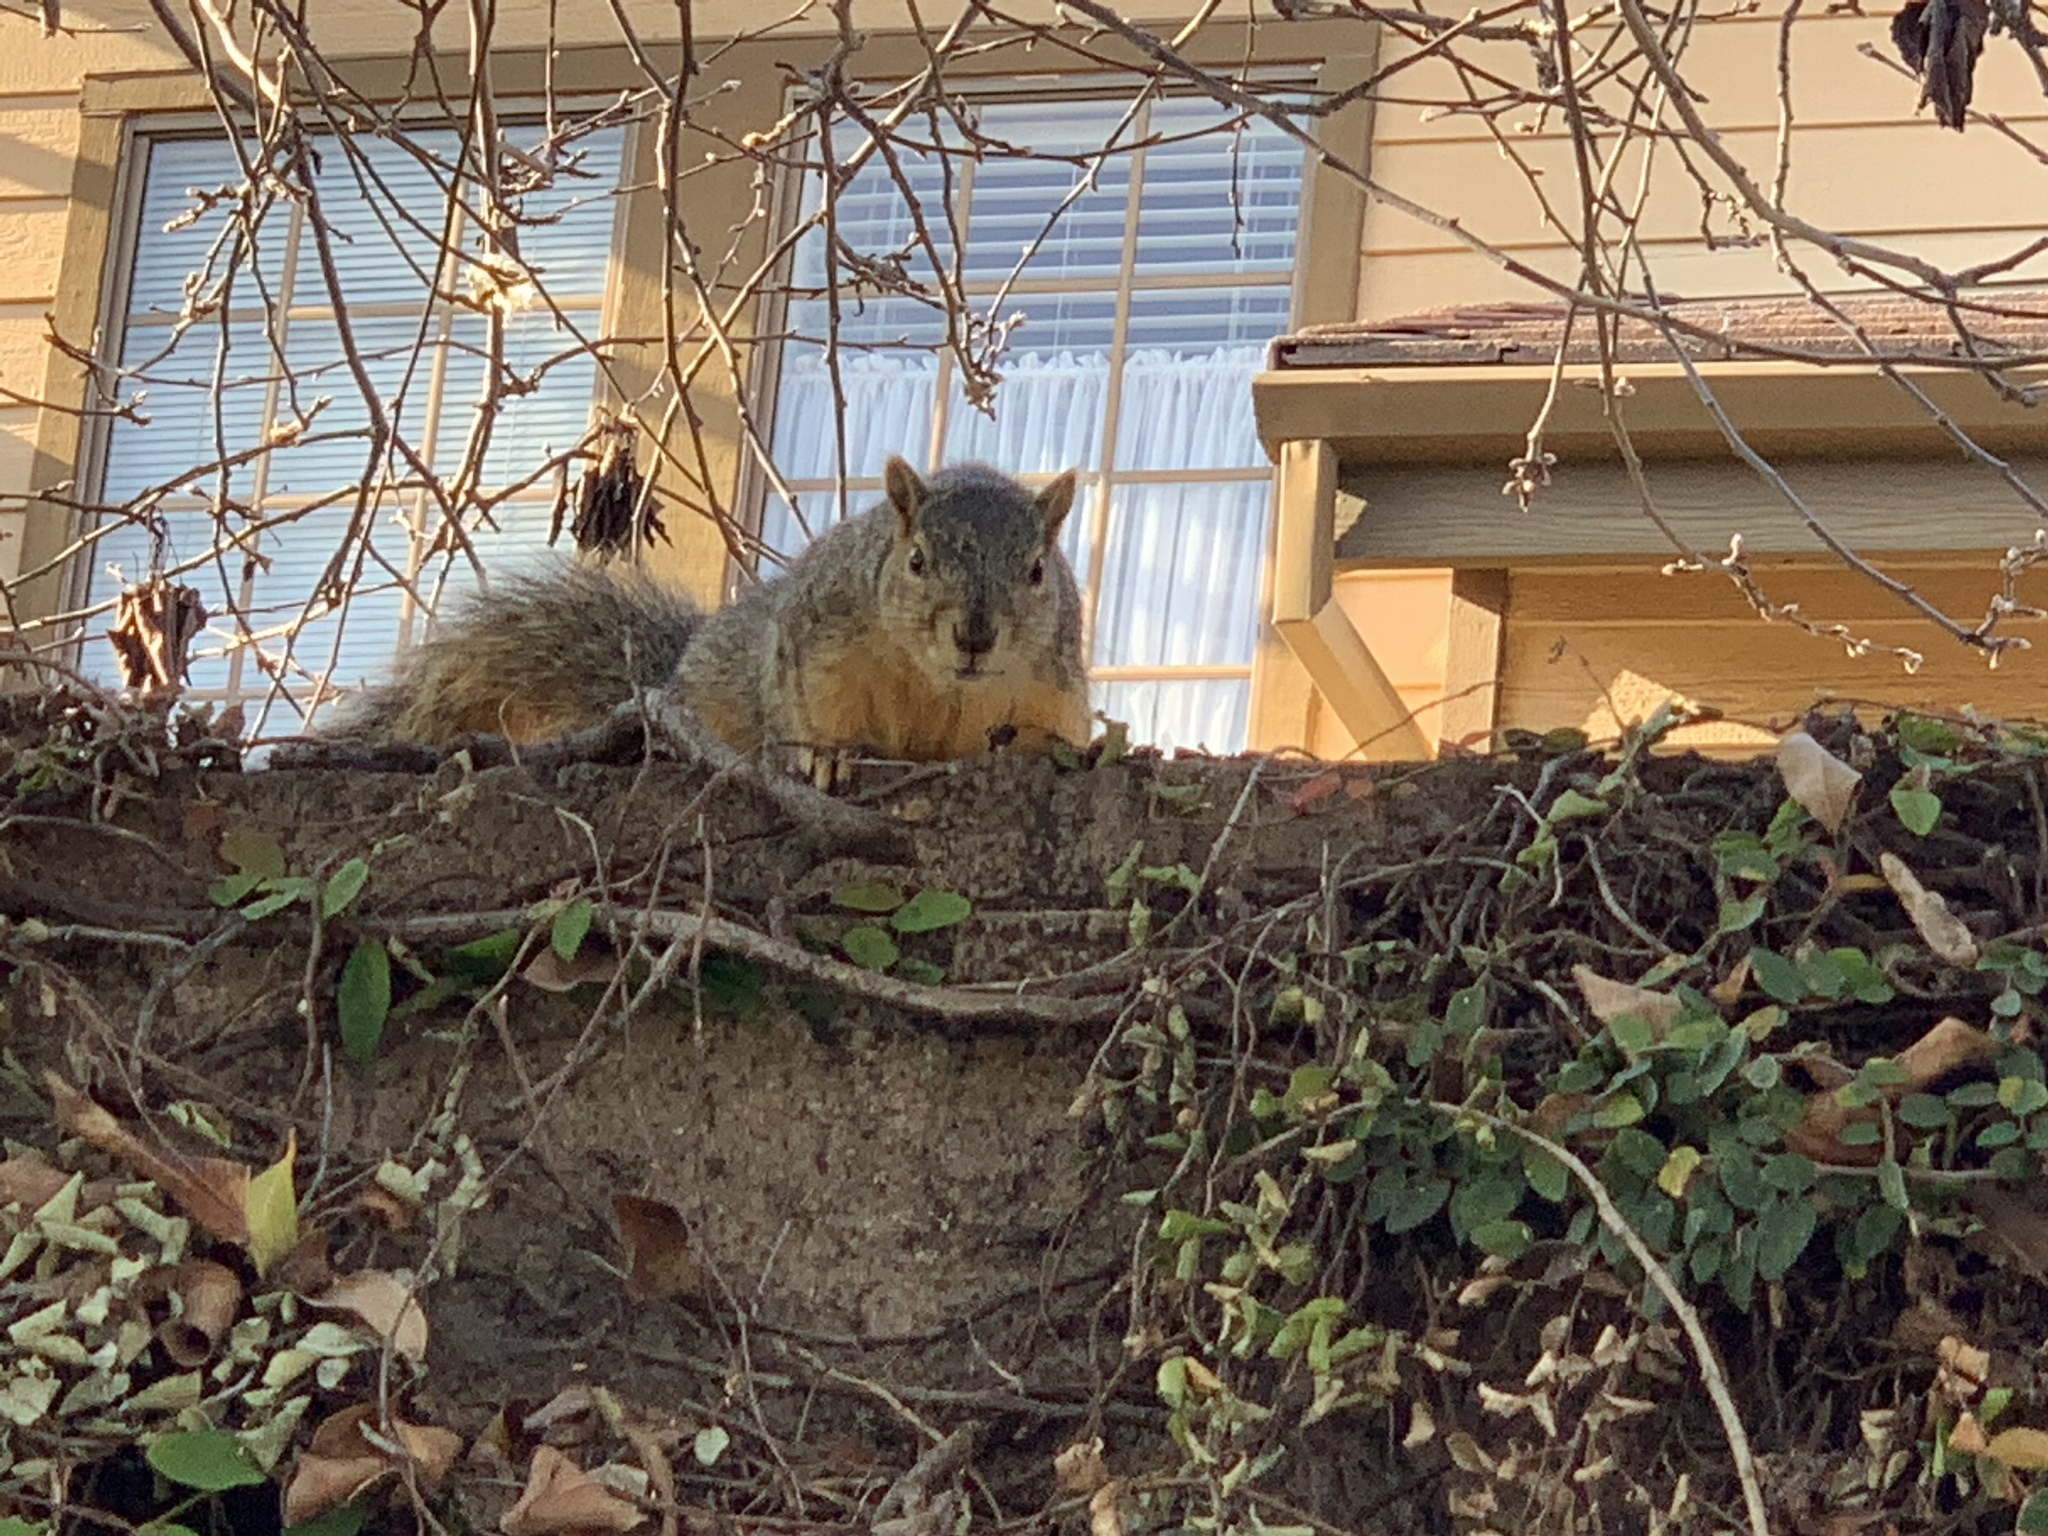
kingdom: Animalia
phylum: Chordata
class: Mammalia
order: Rodentia
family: Sciuridae
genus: Sciurus
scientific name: Sciurus niger
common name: Fox squirrel
